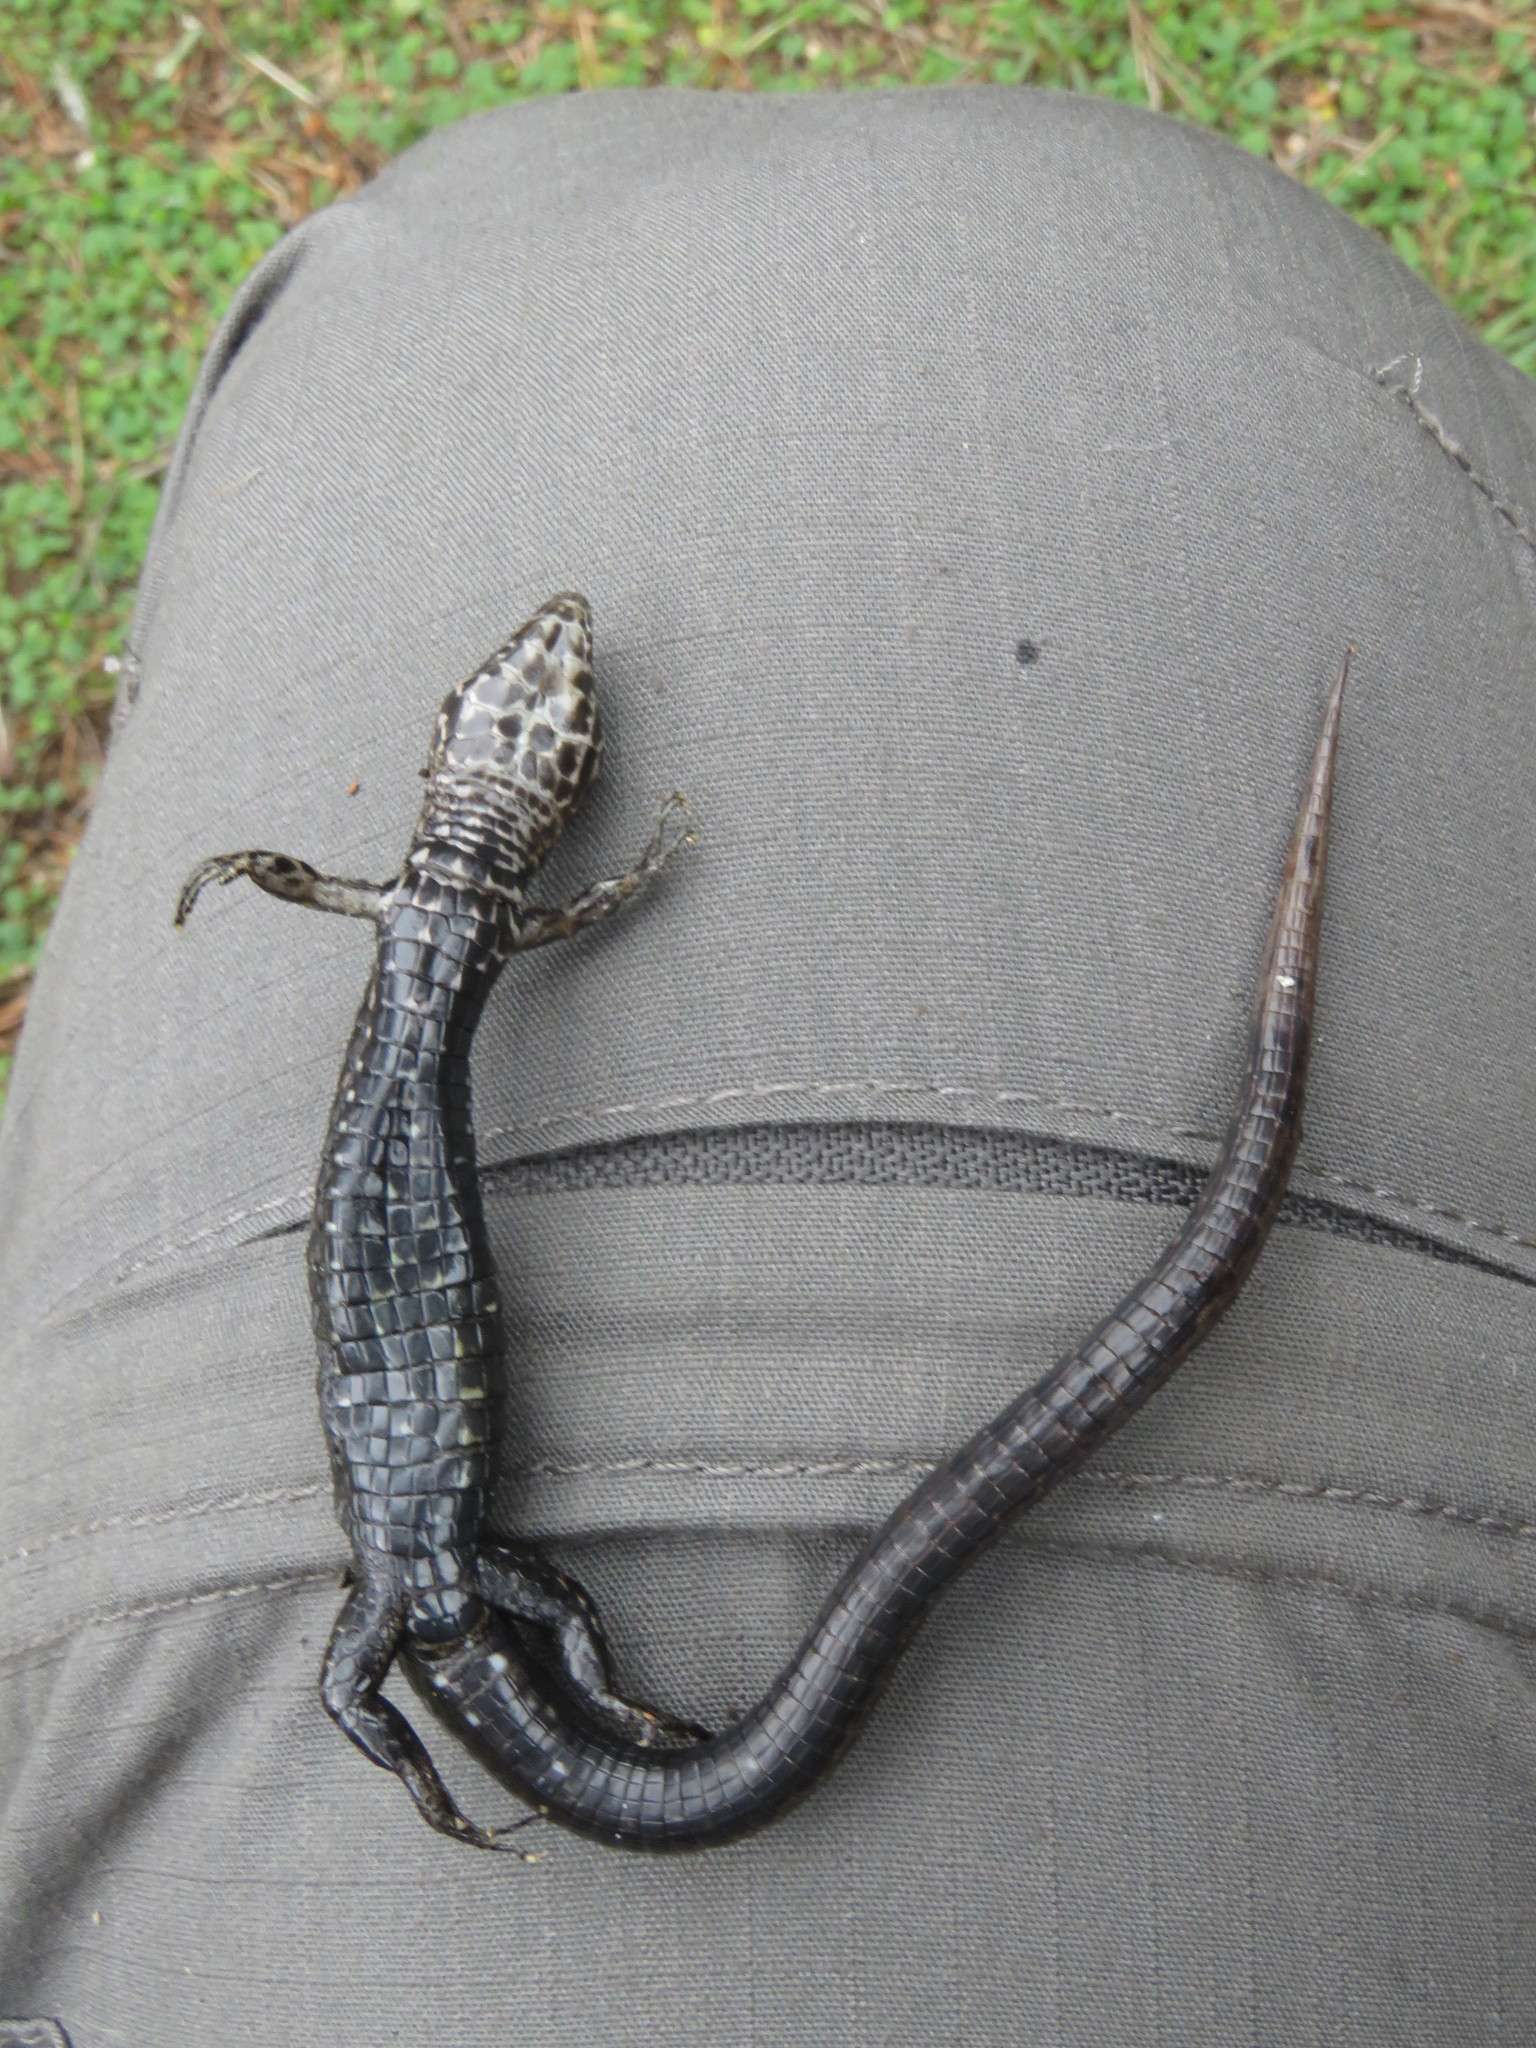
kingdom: Animalia
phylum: Chordata
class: Squamata
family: Gymnophthalmidae
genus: Riama
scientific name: Riama striata
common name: Striped lightbulb lizard
